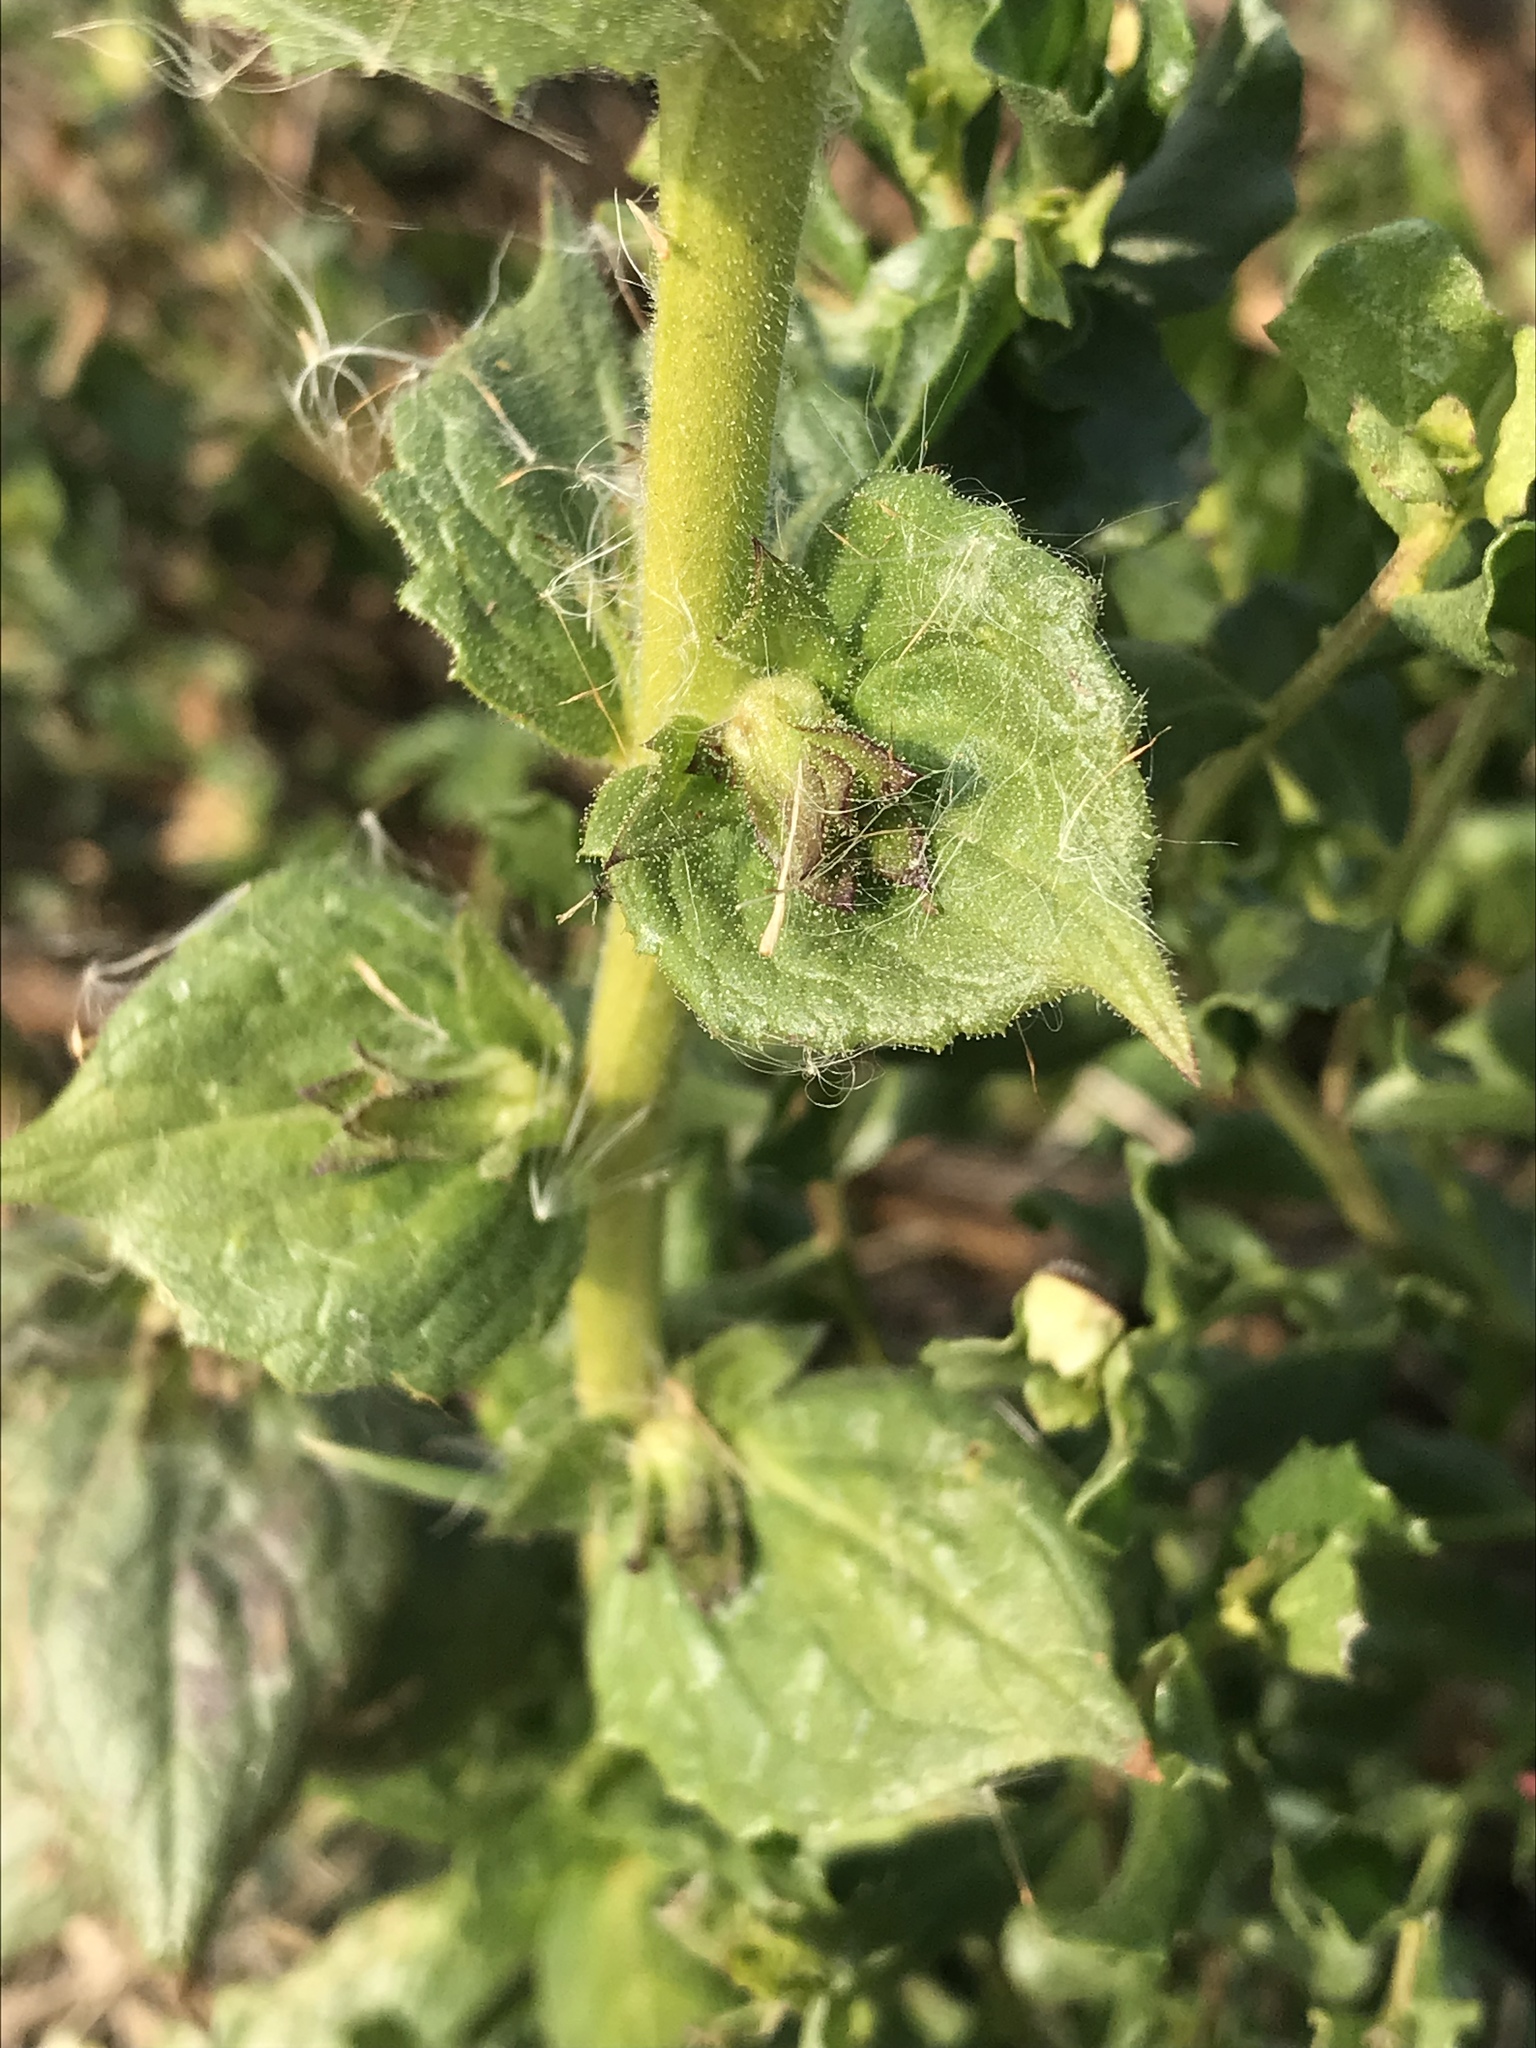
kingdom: Plantae
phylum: Tracheophyta
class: Magnoliopsida
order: Lamiales
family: Scrophulariaceae
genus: Verbascum
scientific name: Verbascum virgatum
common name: Twiggy mullein
